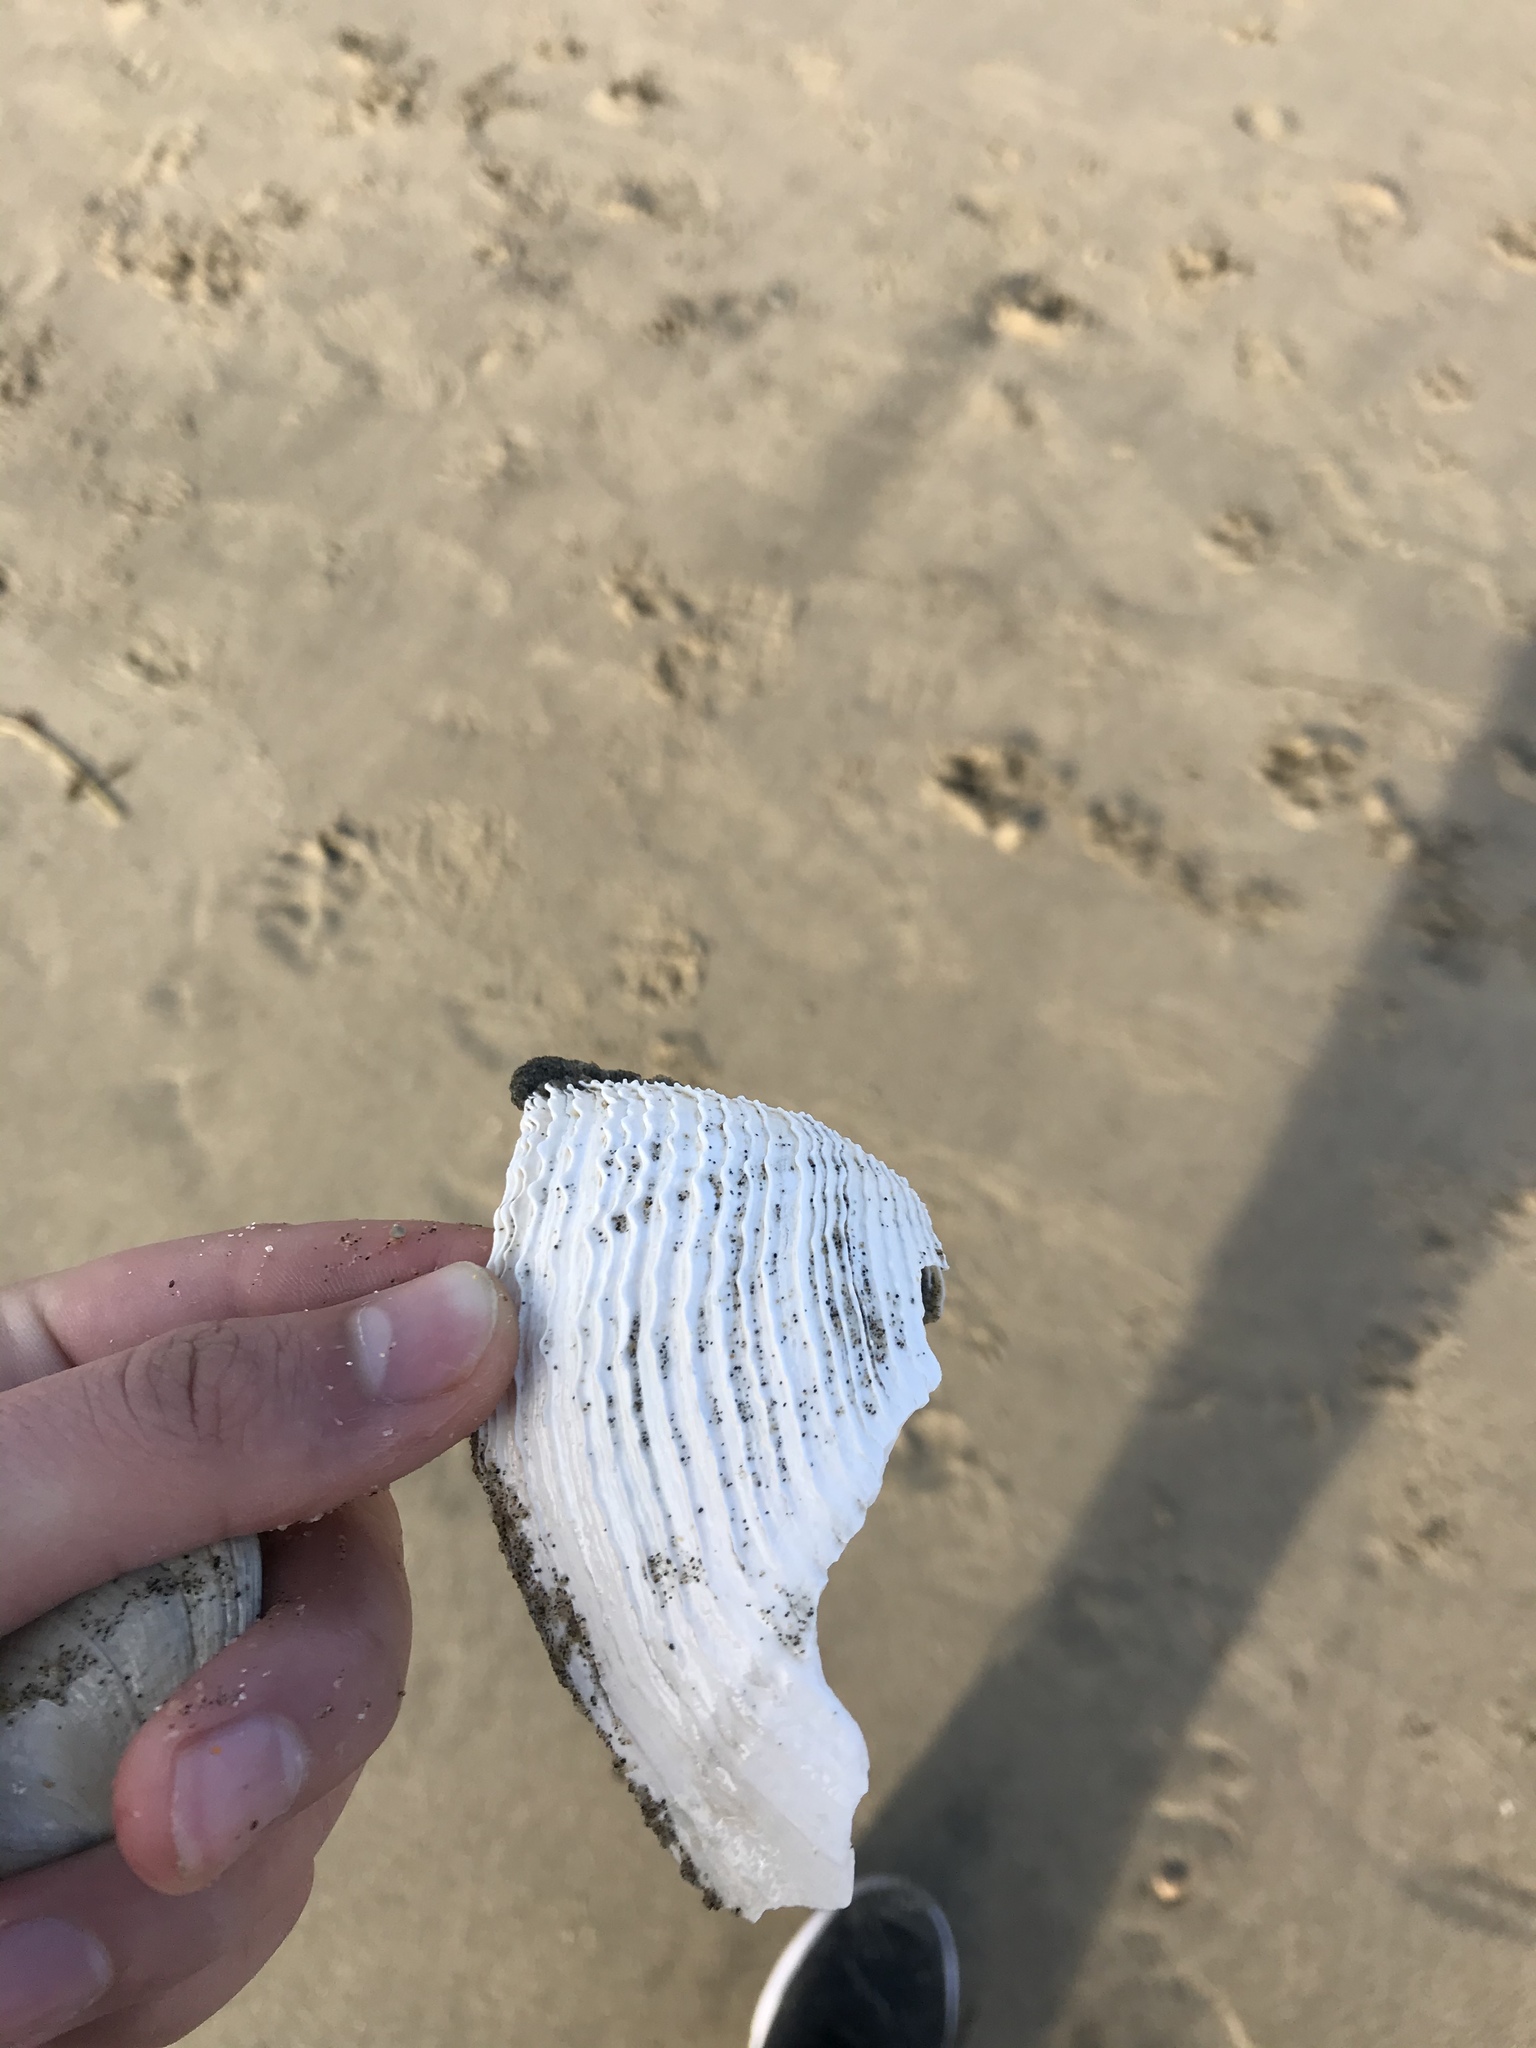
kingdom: Animalia
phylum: Mollusca
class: Bivalvia
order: Myida
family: Pholadidae
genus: Zirfaea
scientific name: Zirfaea pilsbryi
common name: Rough piddock
